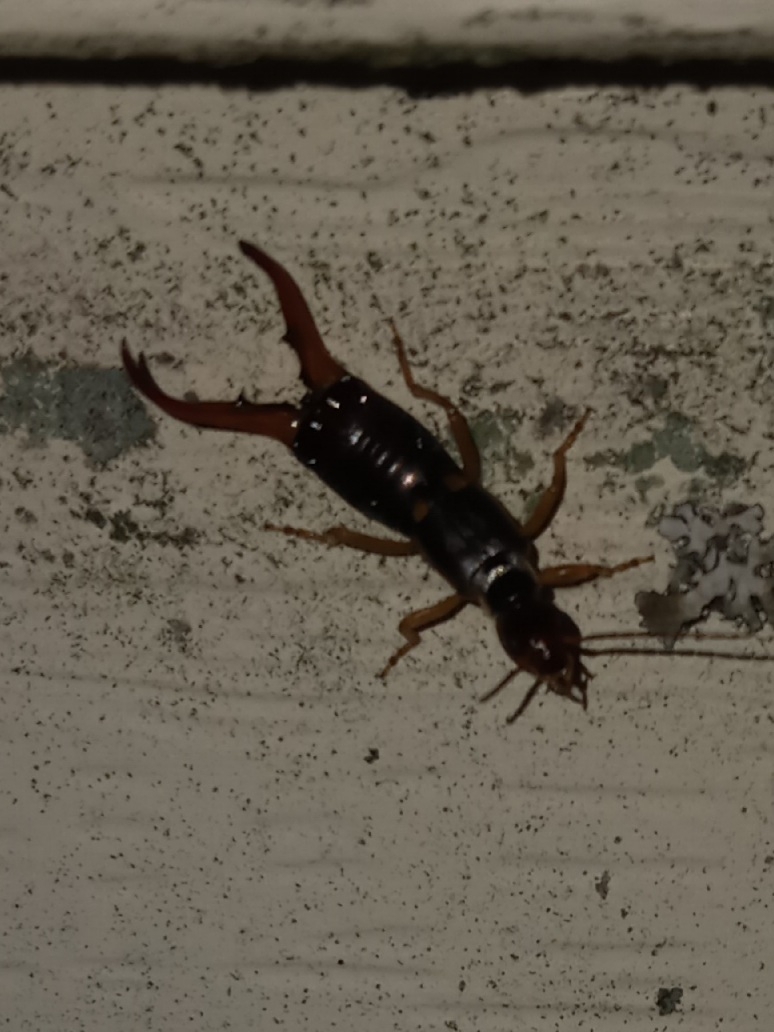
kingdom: Animalia
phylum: Arthropoda
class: Insecta
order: Dermaptera
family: Forficulidae
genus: Forficula
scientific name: Forficula
